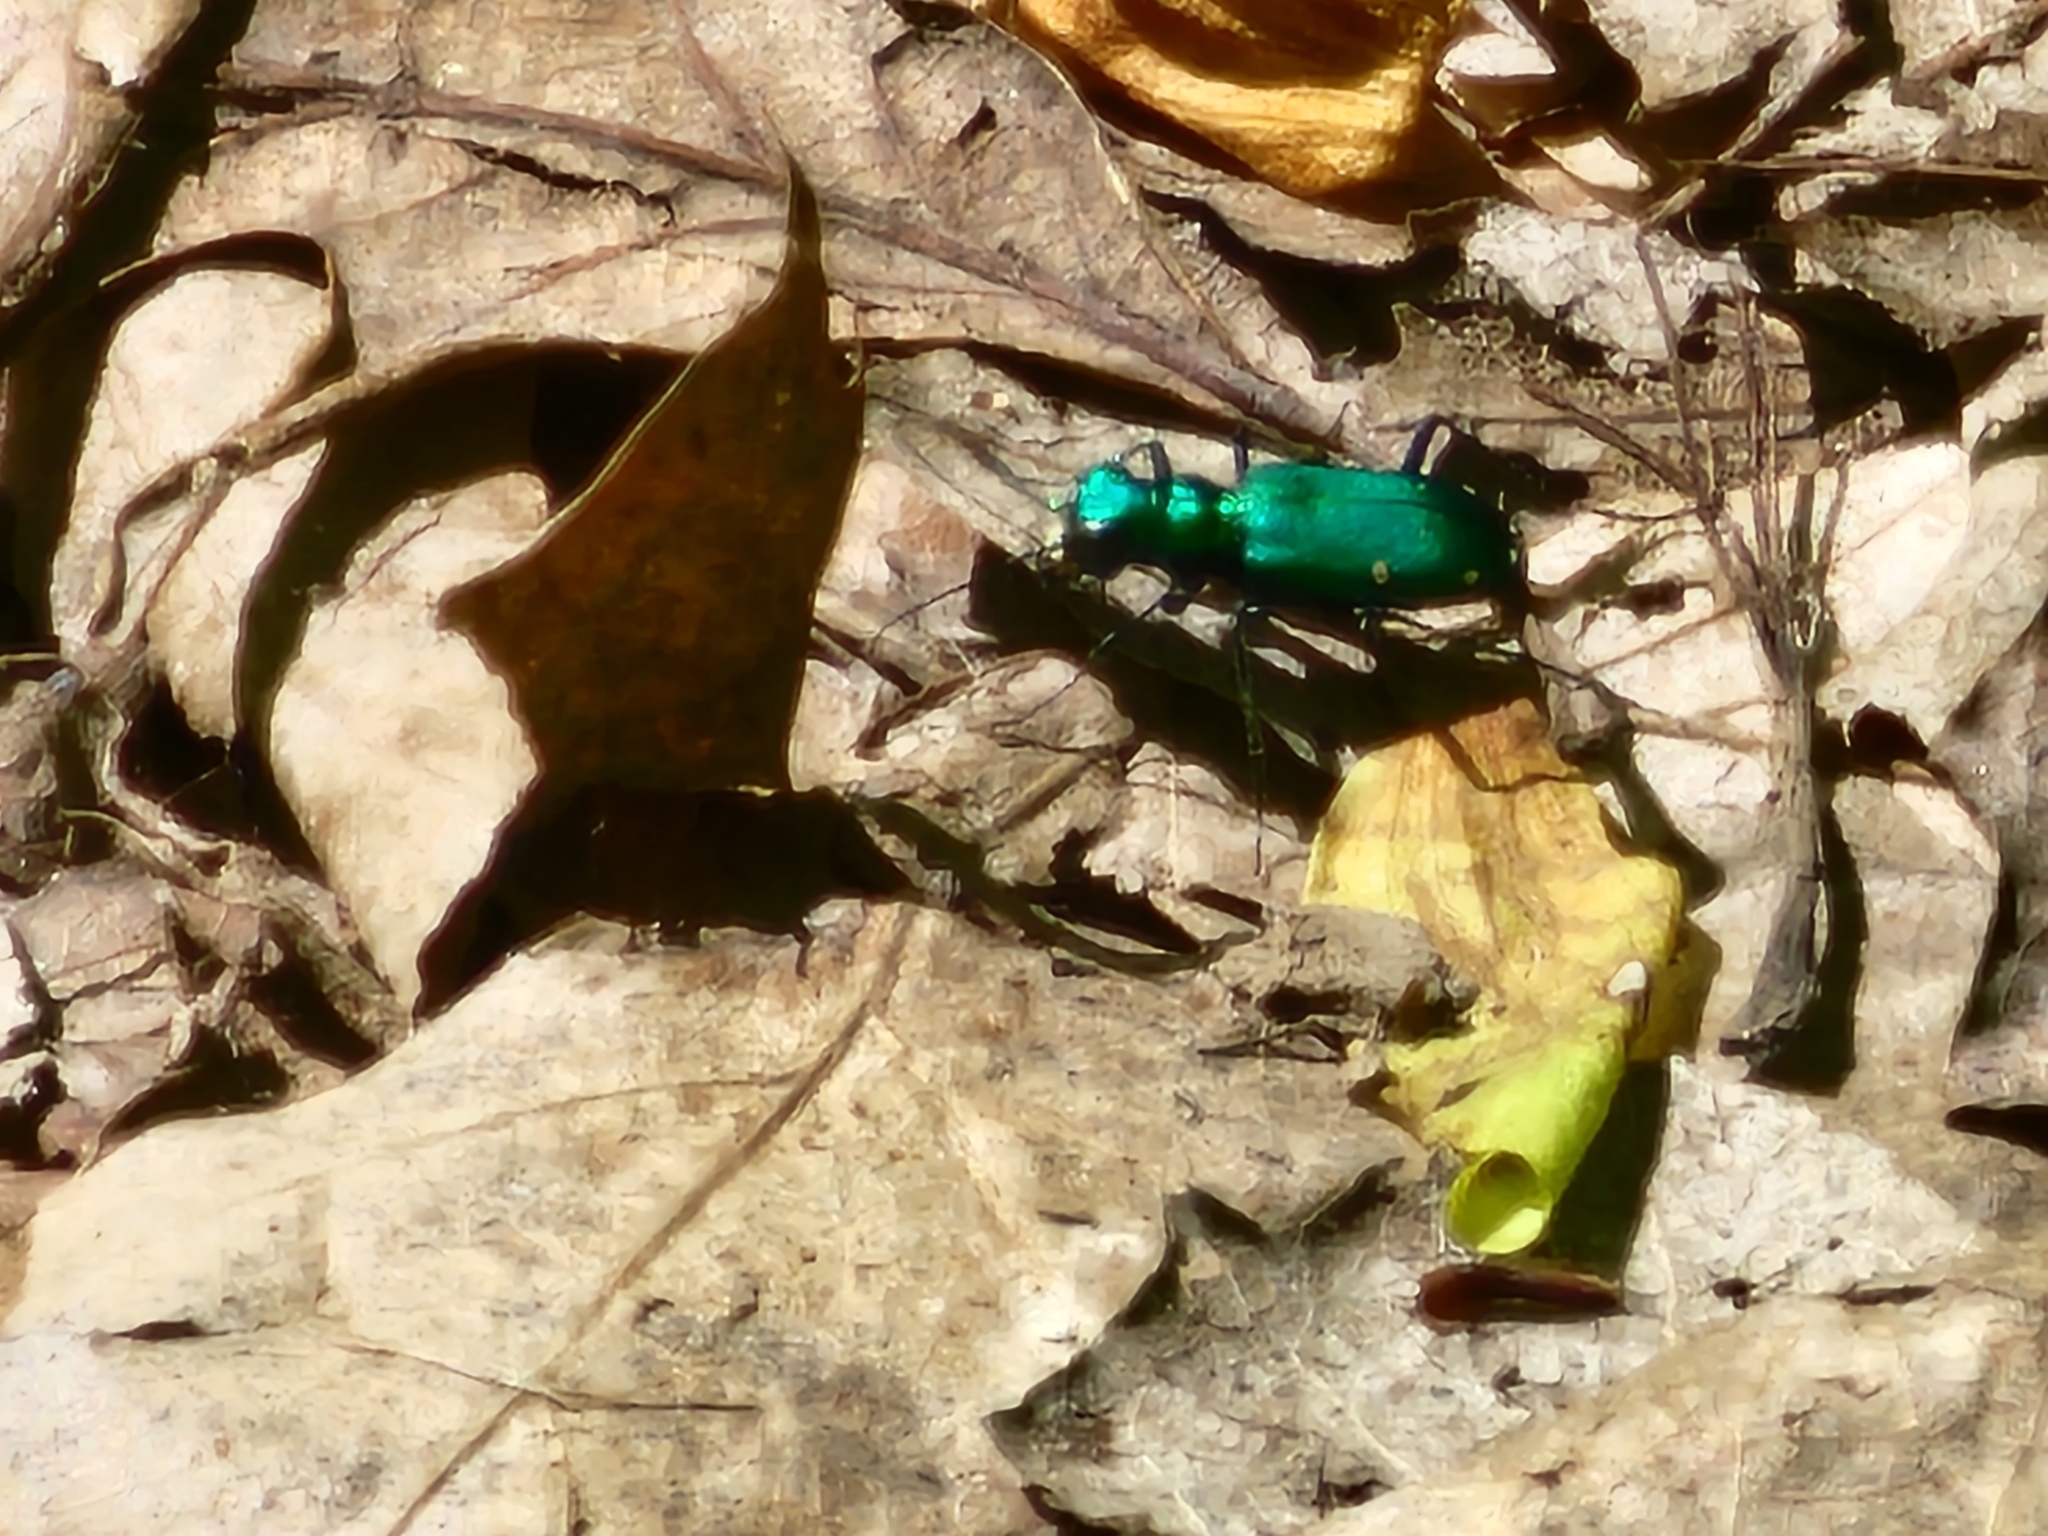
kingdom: Animalia
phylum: Arthropoda
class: Insecta
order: Coleoptera
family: Carabidae
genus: Cicindela
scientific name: Cicindela sexguttata
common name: Six-spotted tiger beetle
